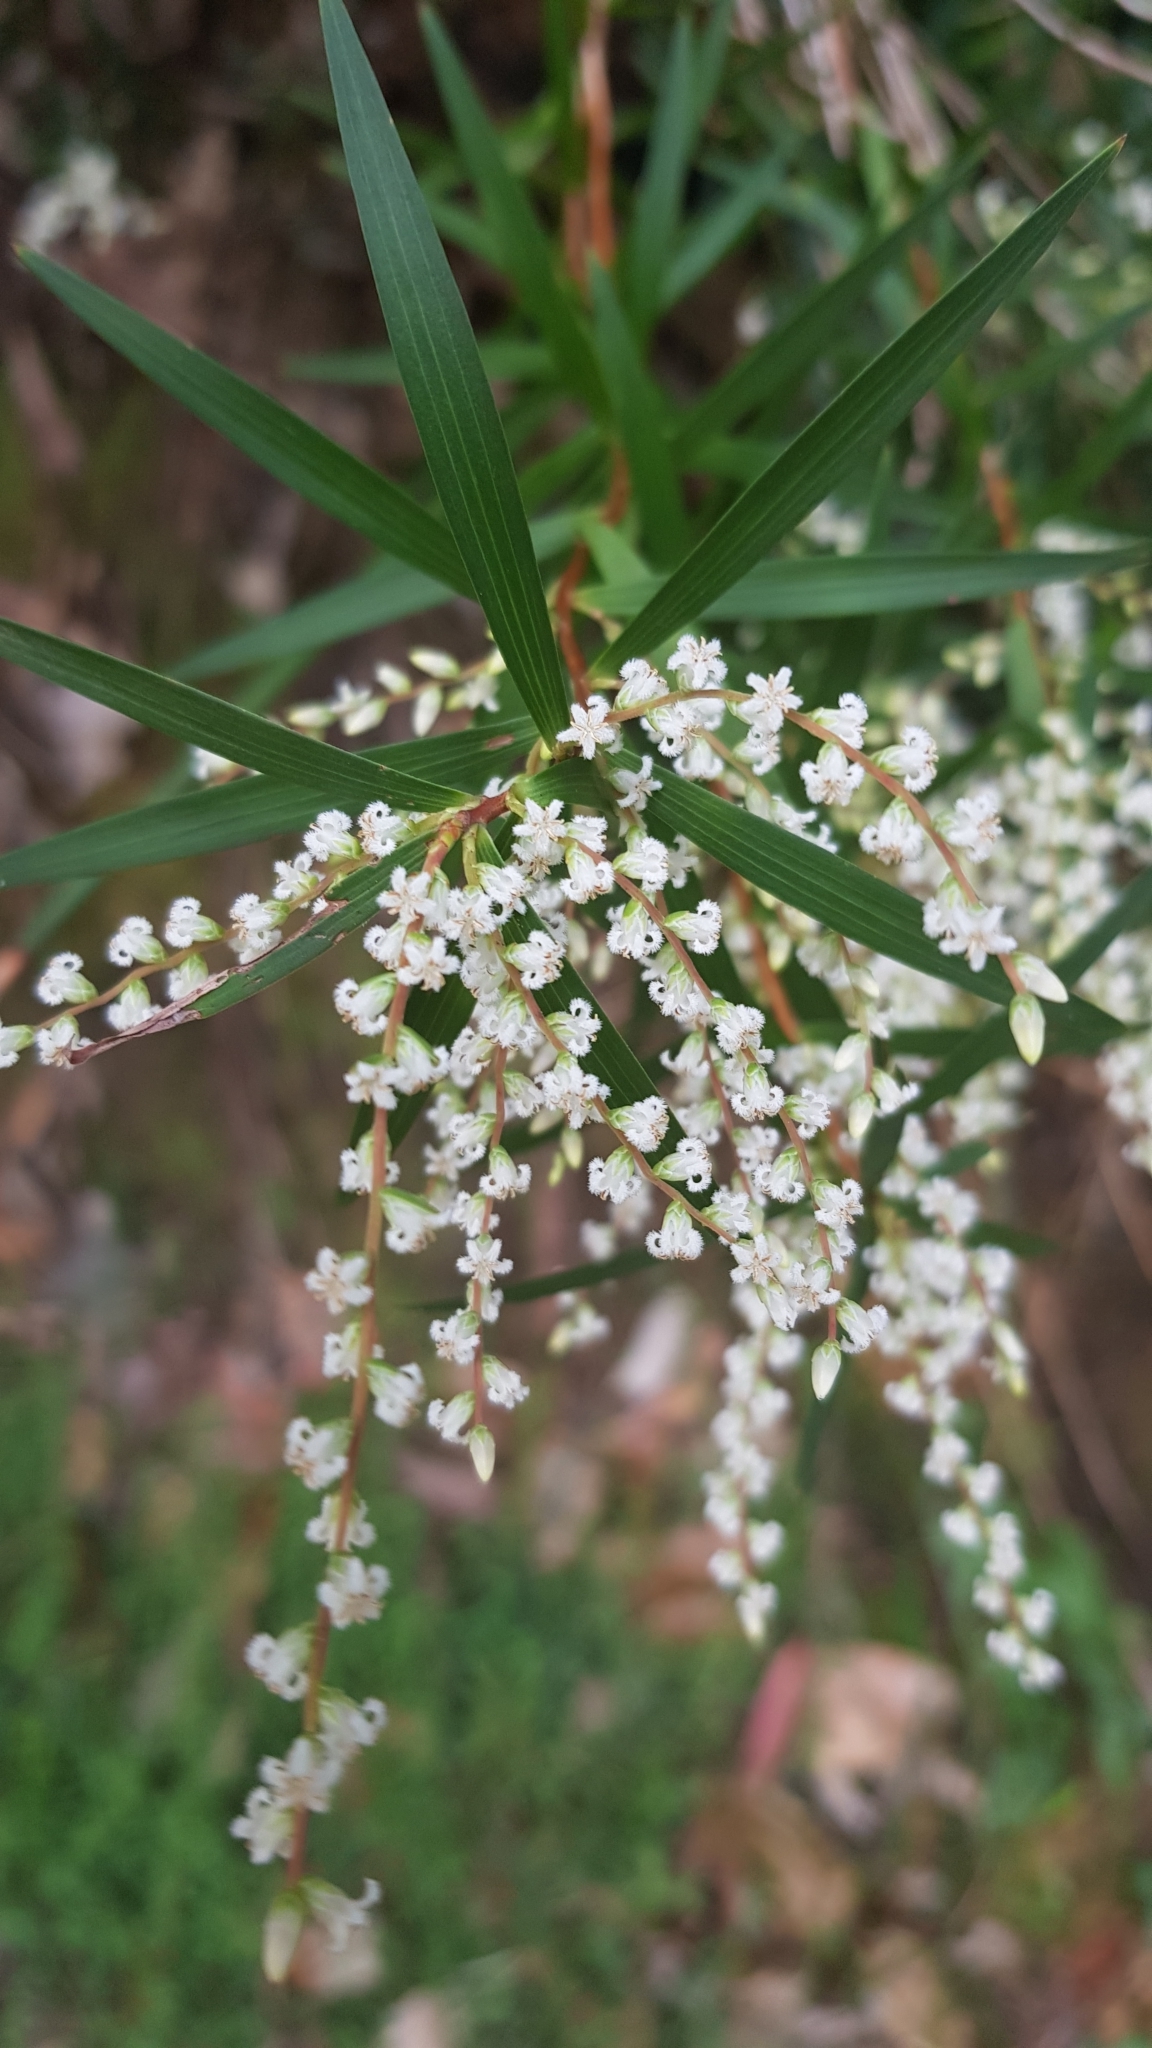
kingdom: Plantae
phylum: Tracheophyta
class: Magnoliopsida
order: Ericales
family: Ericaceae
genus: Leucopogon
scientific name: Leucopogon lanceolatus
